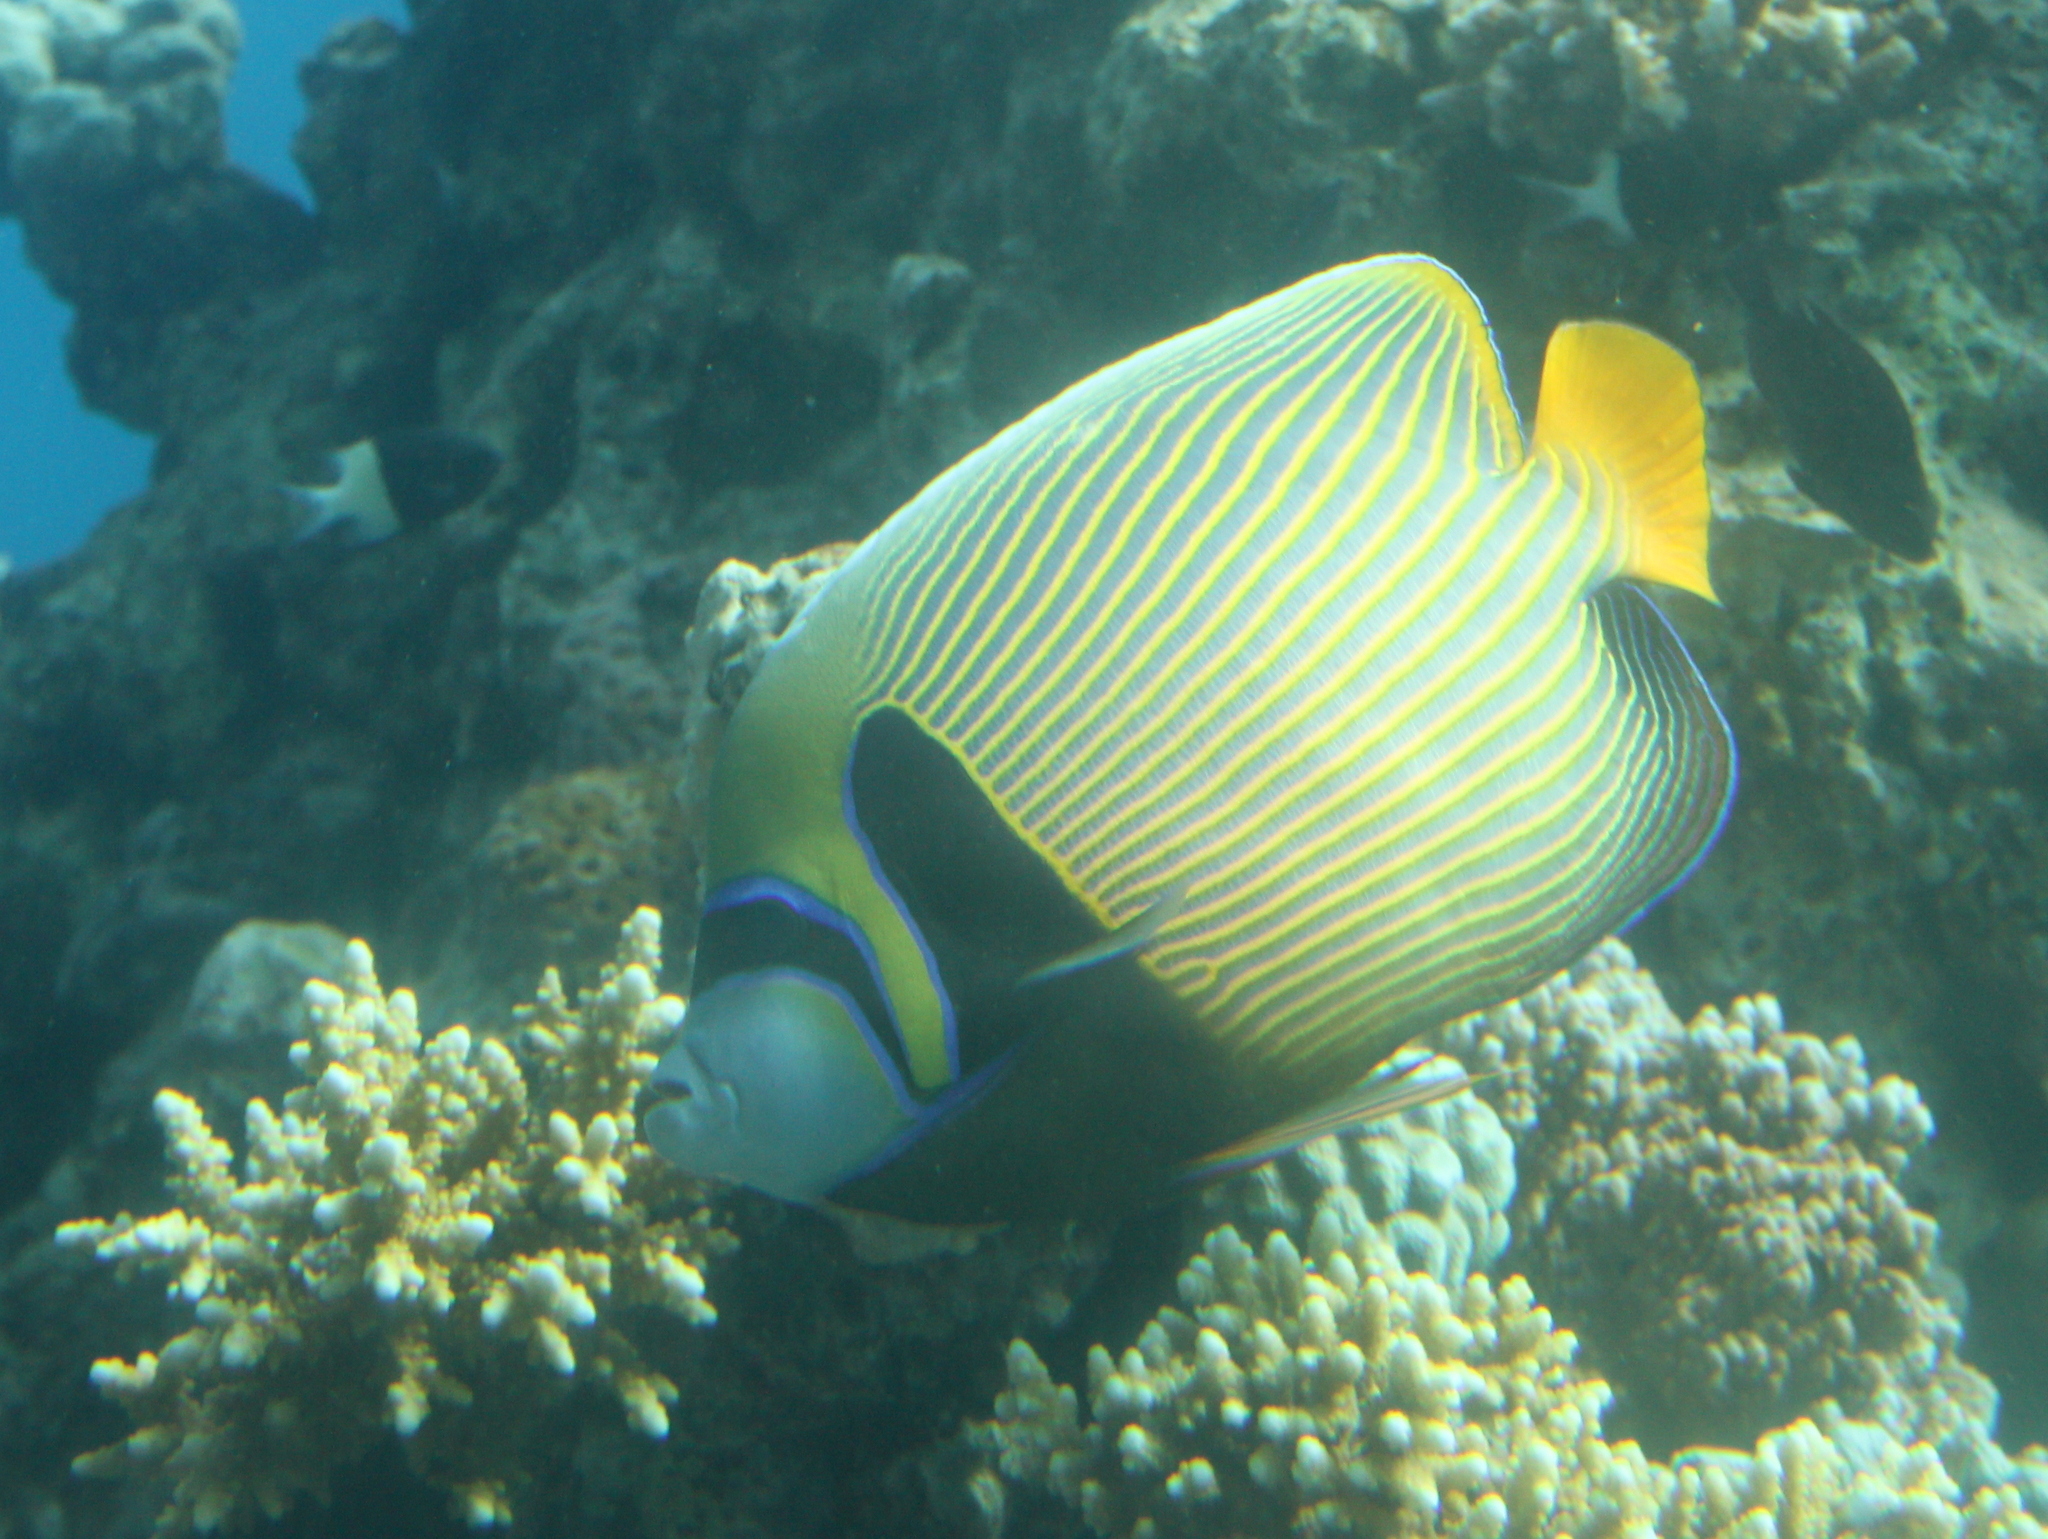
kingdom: Animalia
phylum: Chordata
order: Perciformes
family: Pomacanthidae
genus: Pomacanthus
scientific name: Pomacanthus imperator
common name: Emperor angelfish
